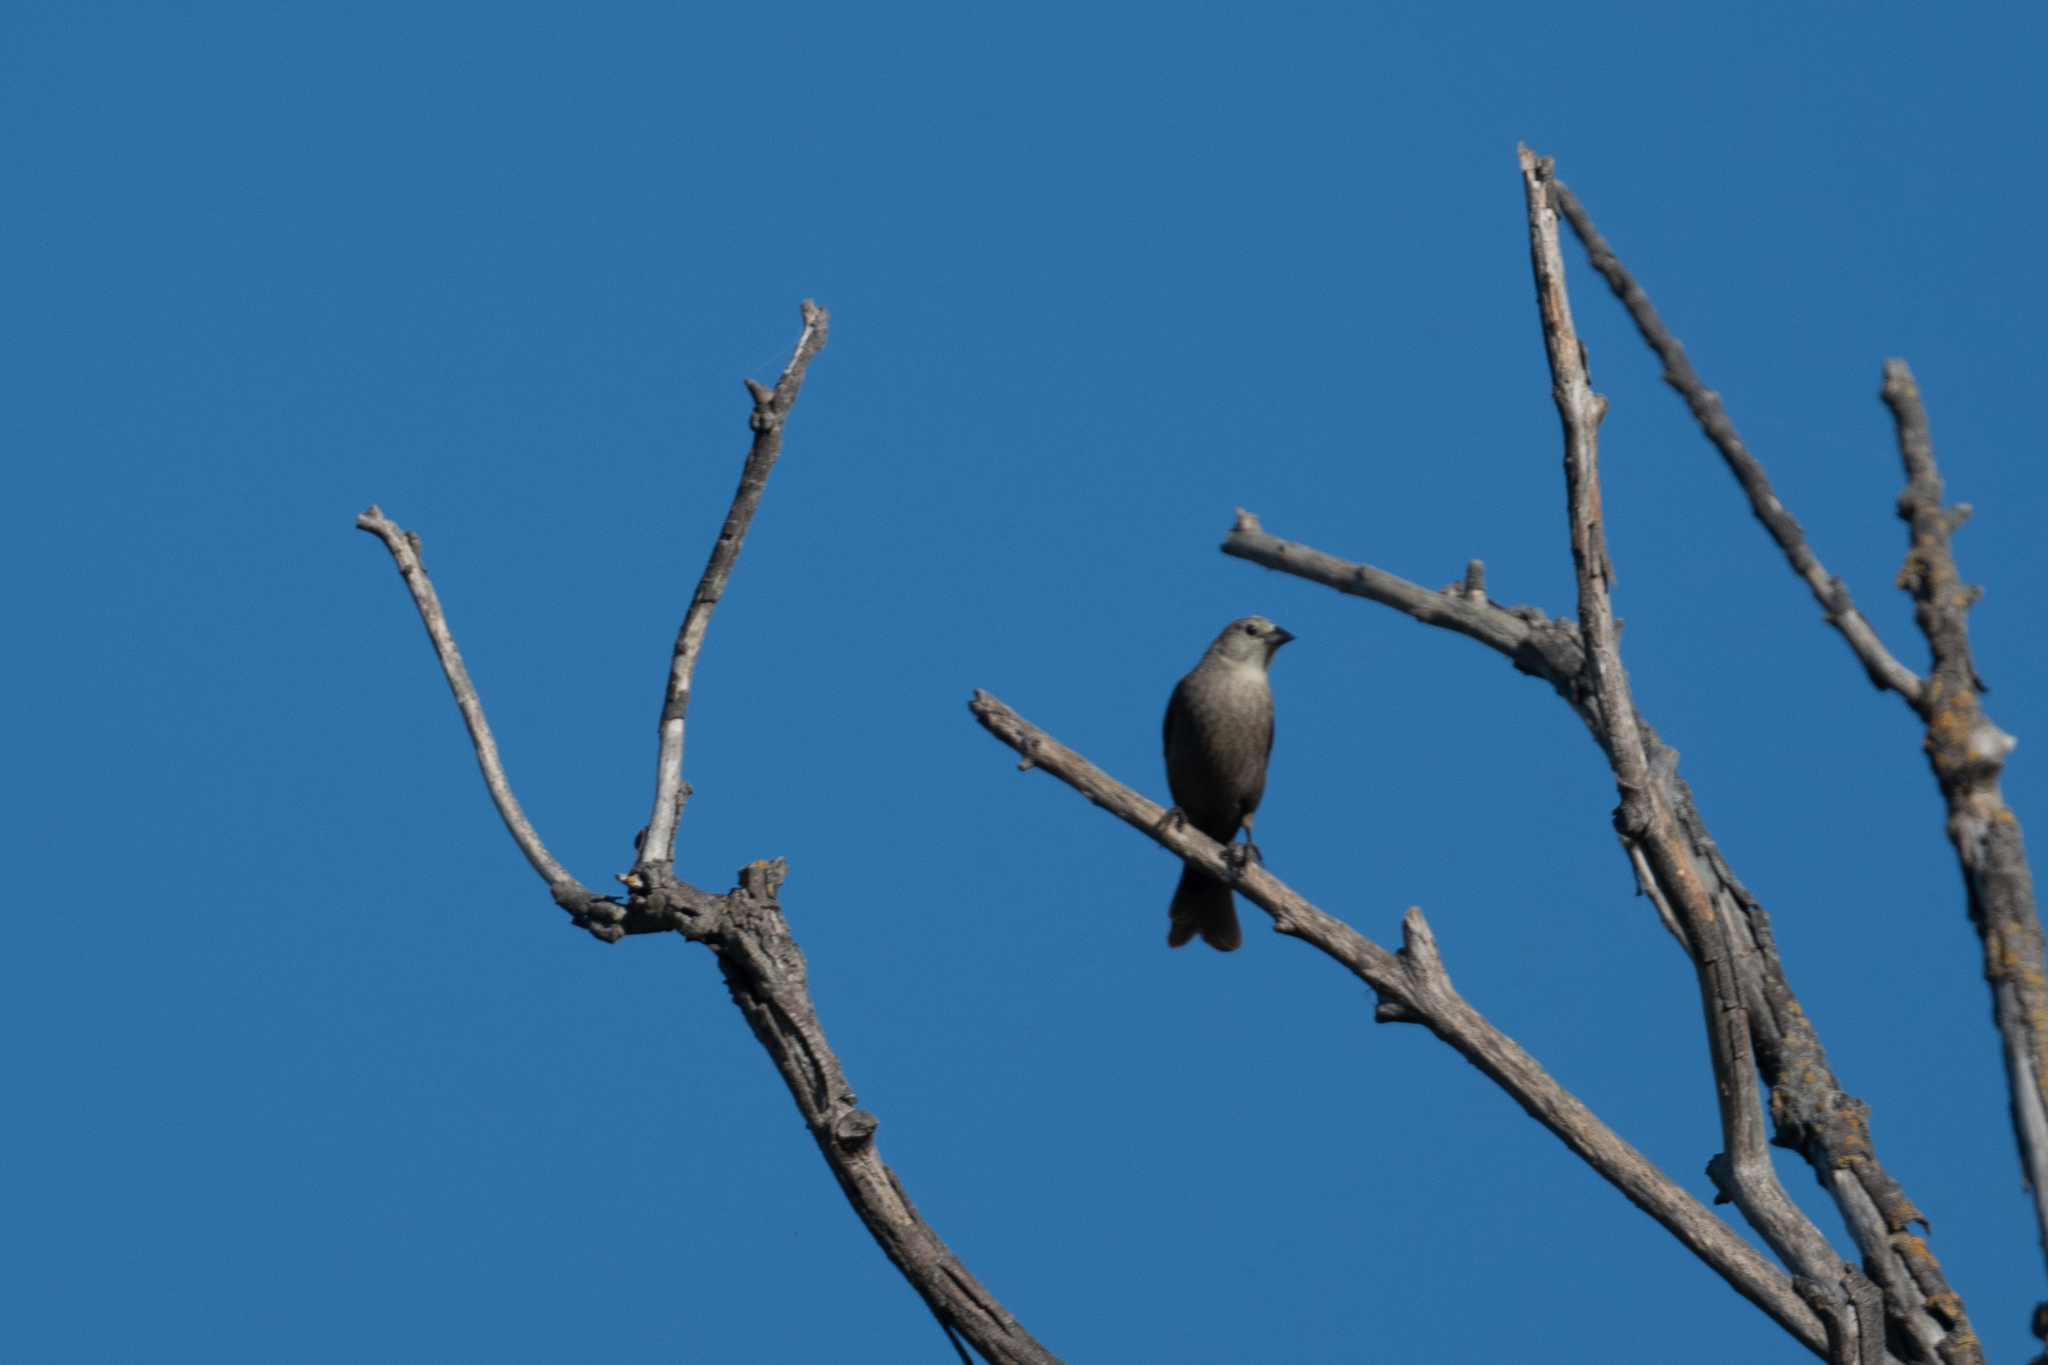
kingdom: Animalia
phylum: Chordata
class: Aves
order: Passeriformes
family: Icteridae
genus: Molothrus
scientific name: Molothrus ater
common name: Brown-headed cowbird
